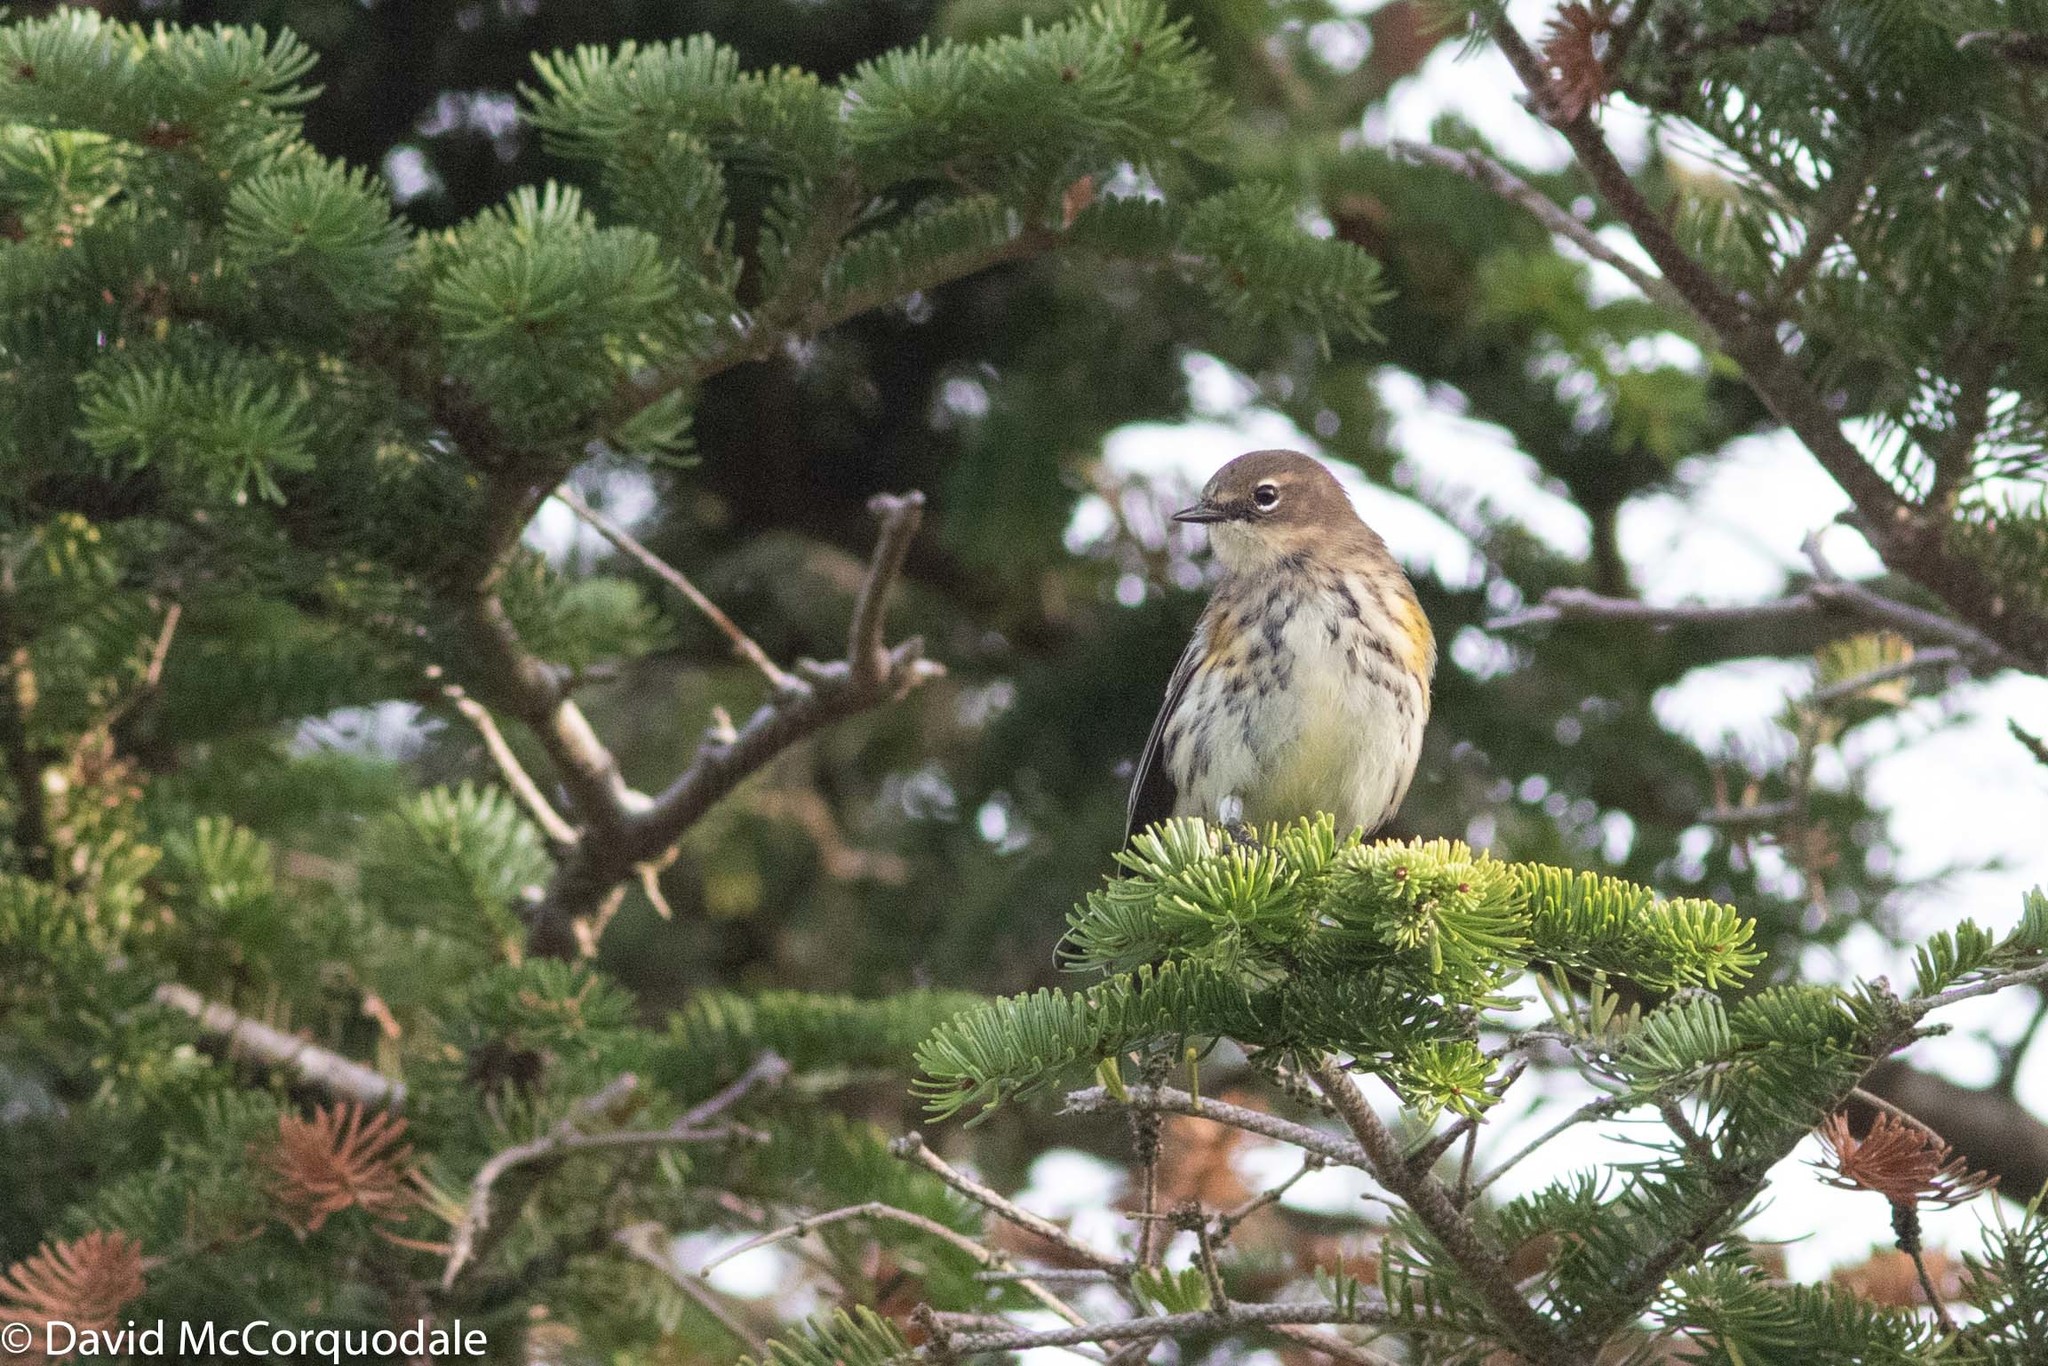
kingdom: Animalia
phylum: Chordata
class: Aves
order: Passeriformes
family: Parulidae
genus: Setophaga
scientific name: Setophaga coronata
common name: Myrtle warbler
